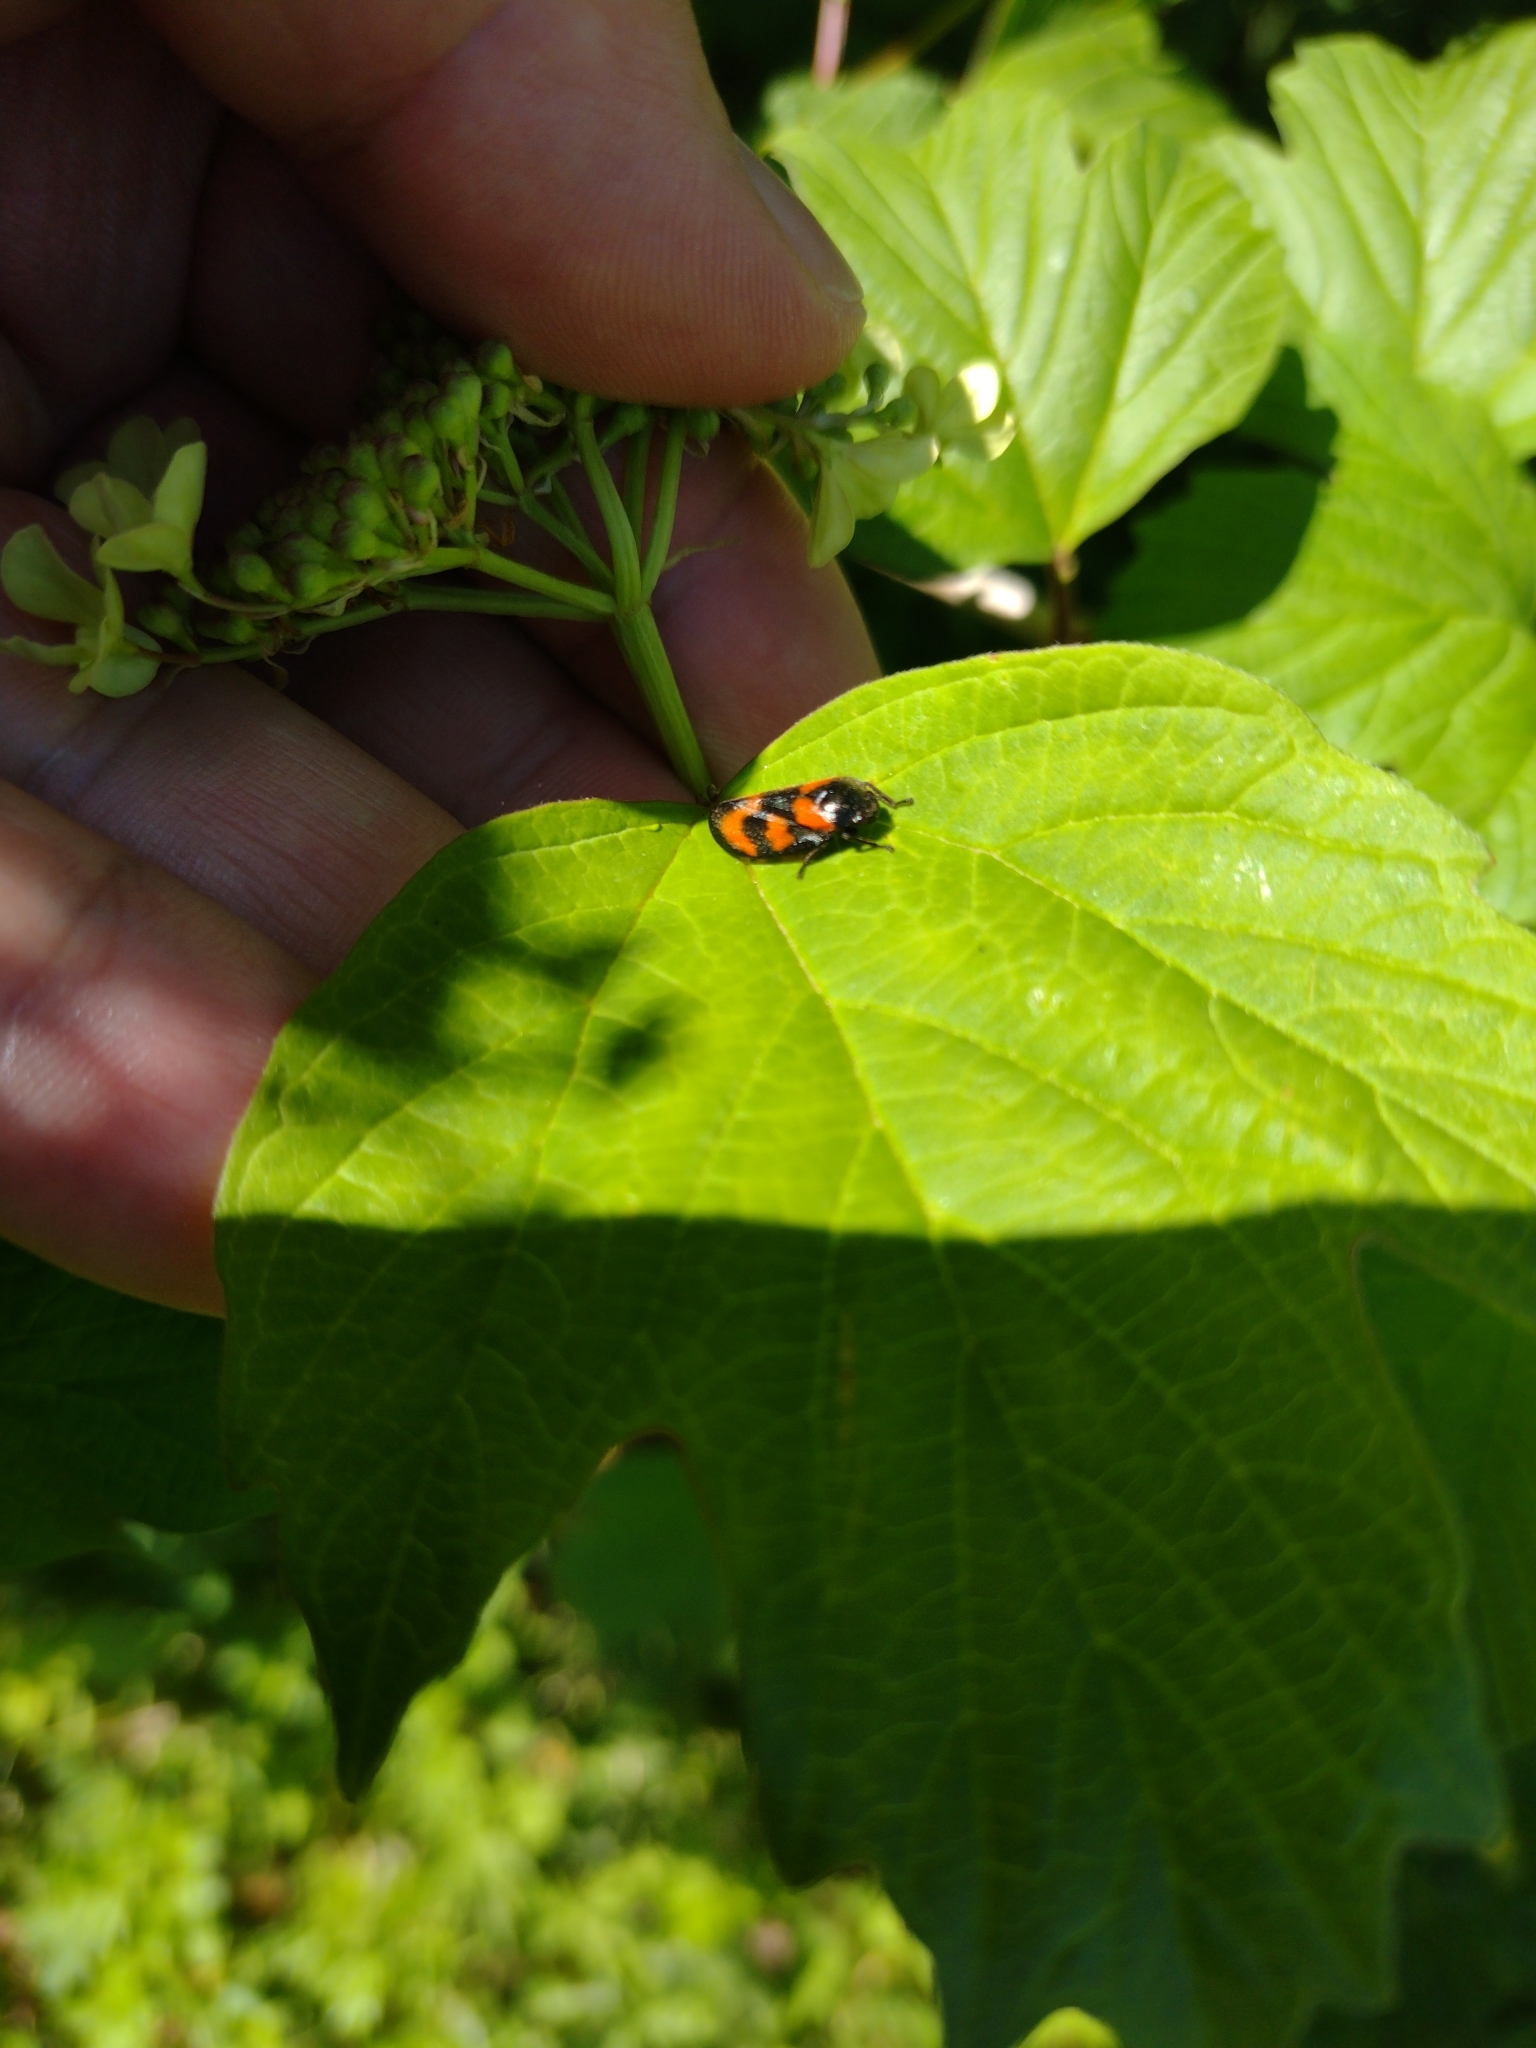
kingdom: Animalia
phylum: Arthropoda
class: Insecta
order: Hemiptera
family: Cercopidae
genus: Cercopis
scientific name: Cercopis vulnerata
